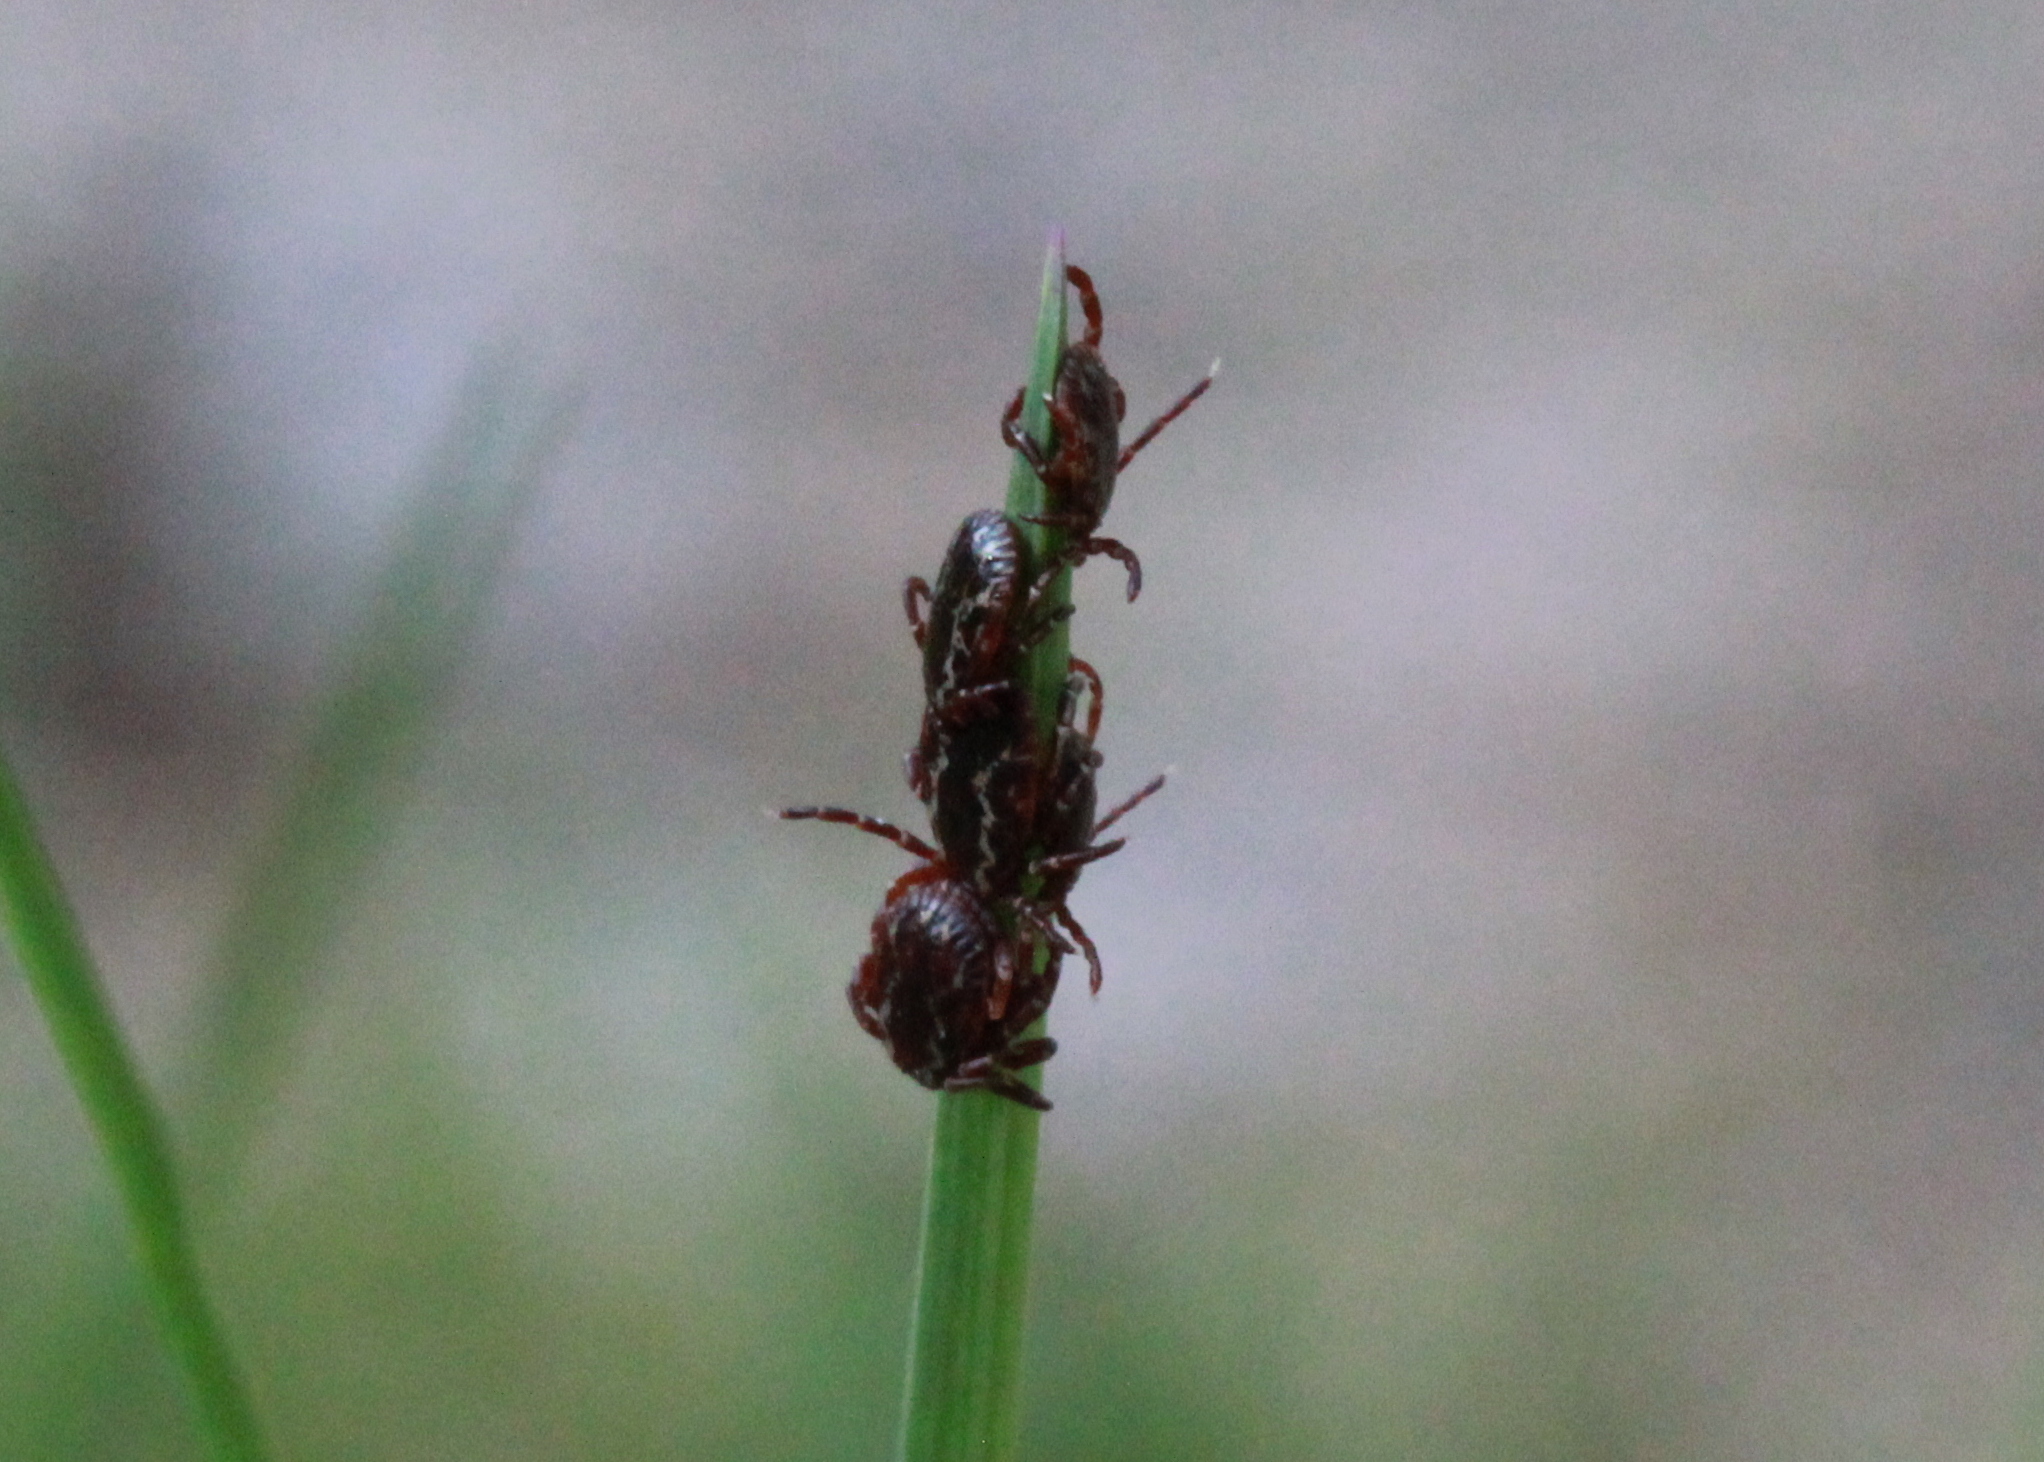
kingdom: Animalia
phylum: Arthropoda
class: Arachnida
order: Ixodida
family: Ixodidae
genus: Dermacentor
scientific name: Dermacentor variabilis
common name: American dog tick
